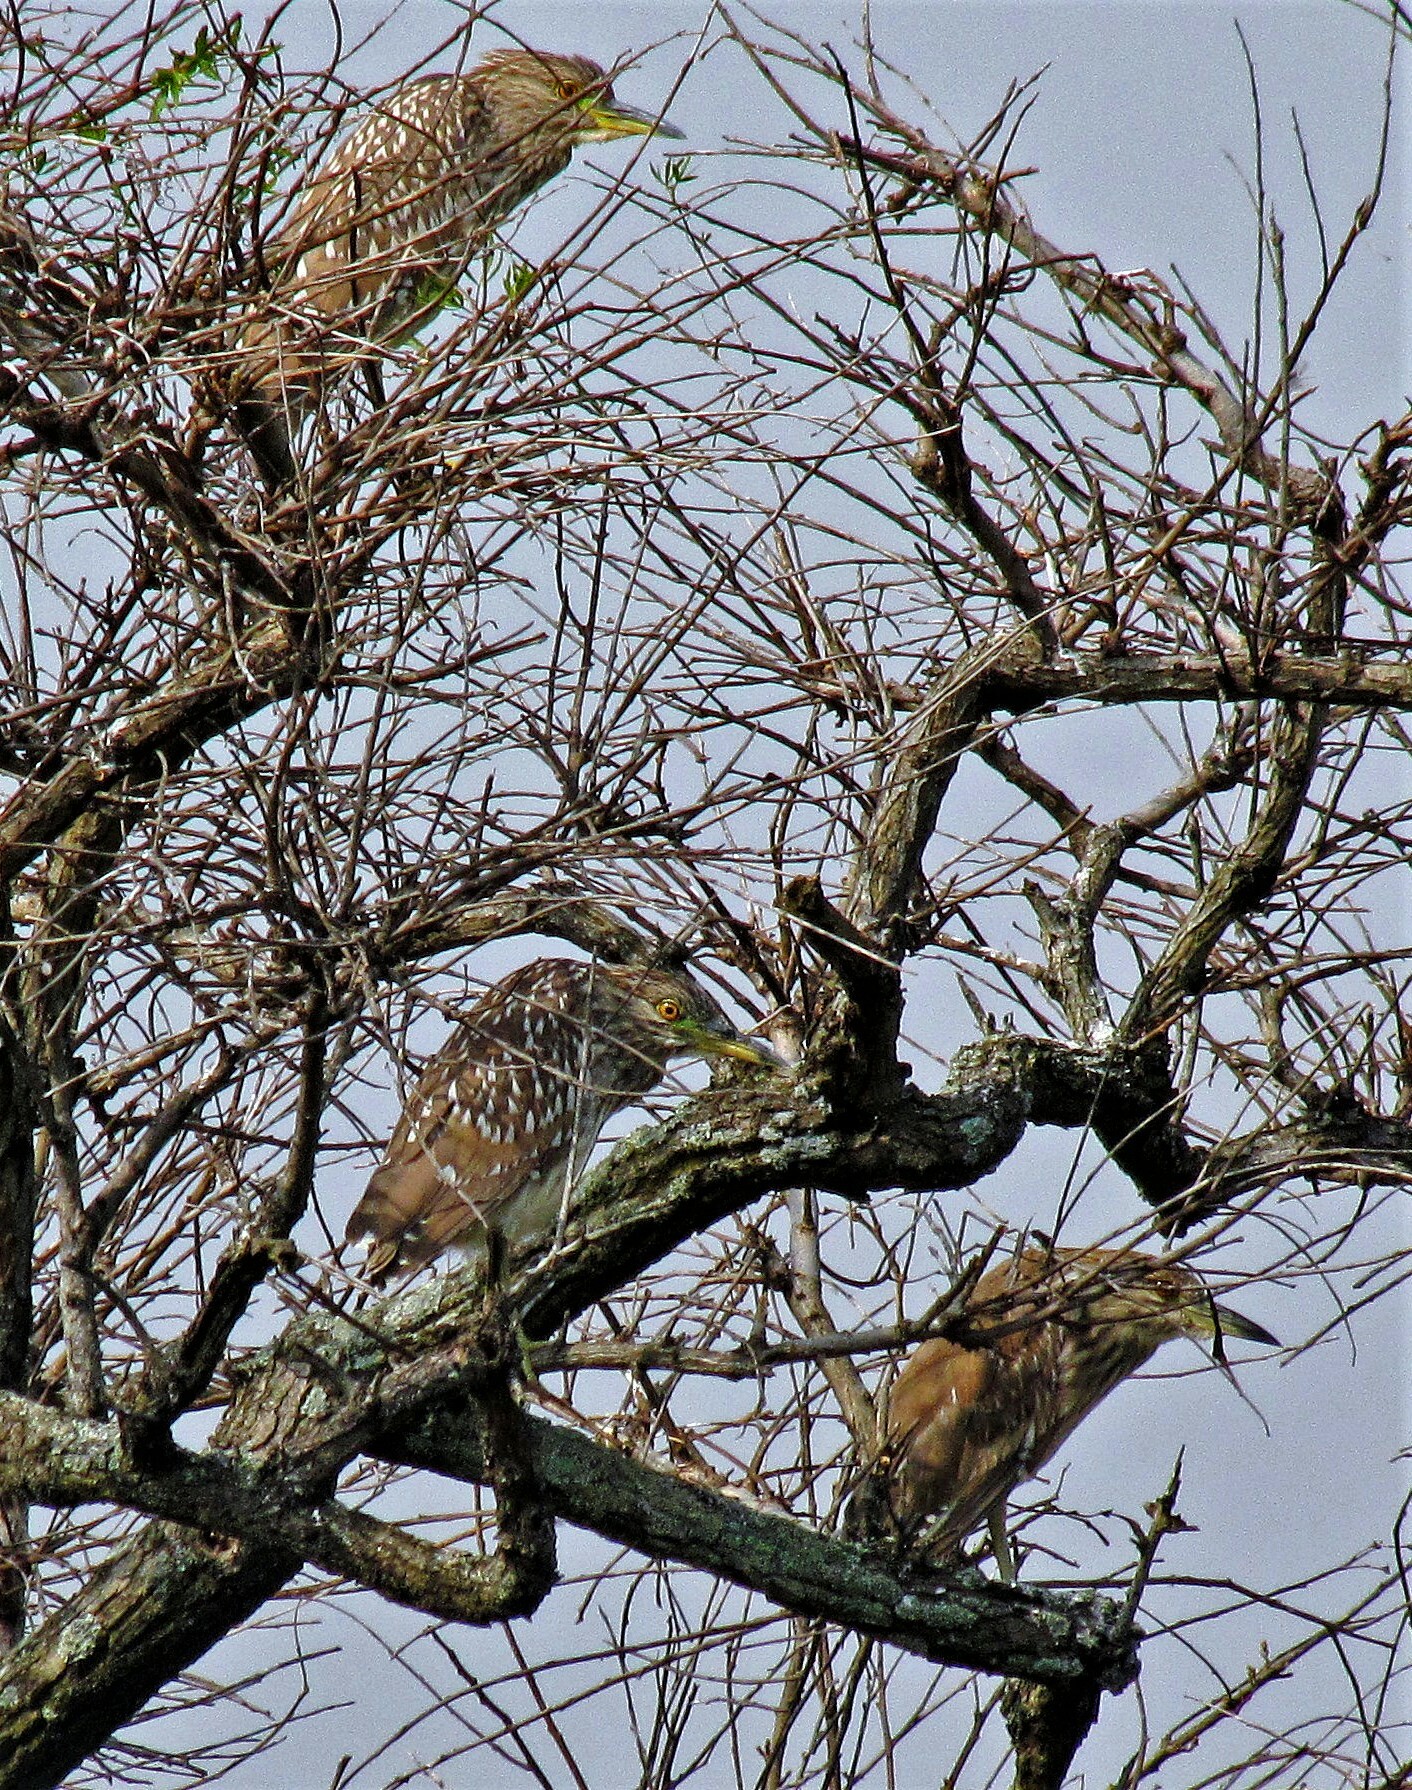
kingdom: Animalia
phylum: Chordata
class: Aves
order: Pelecaniformes
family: Ardeidae
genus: Nycticorax
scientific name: Nycticorax nycticorax
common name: Black-crowned night heron
